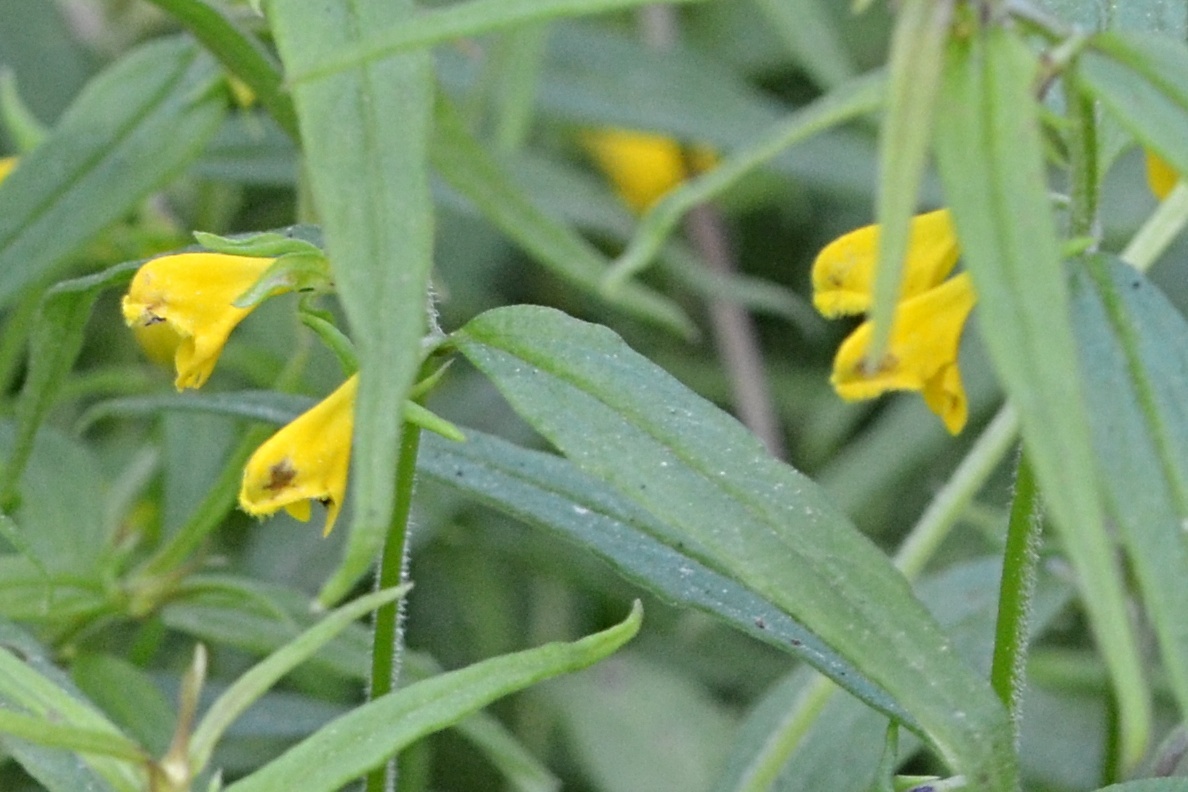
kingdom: Plantae
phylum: Tracheophyta
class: Magnoliopsida
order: Lamiales
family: Orobanchaceae
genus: Melampyrum
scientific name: Melampyrum sylvaticum
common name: Small cow-wheat
